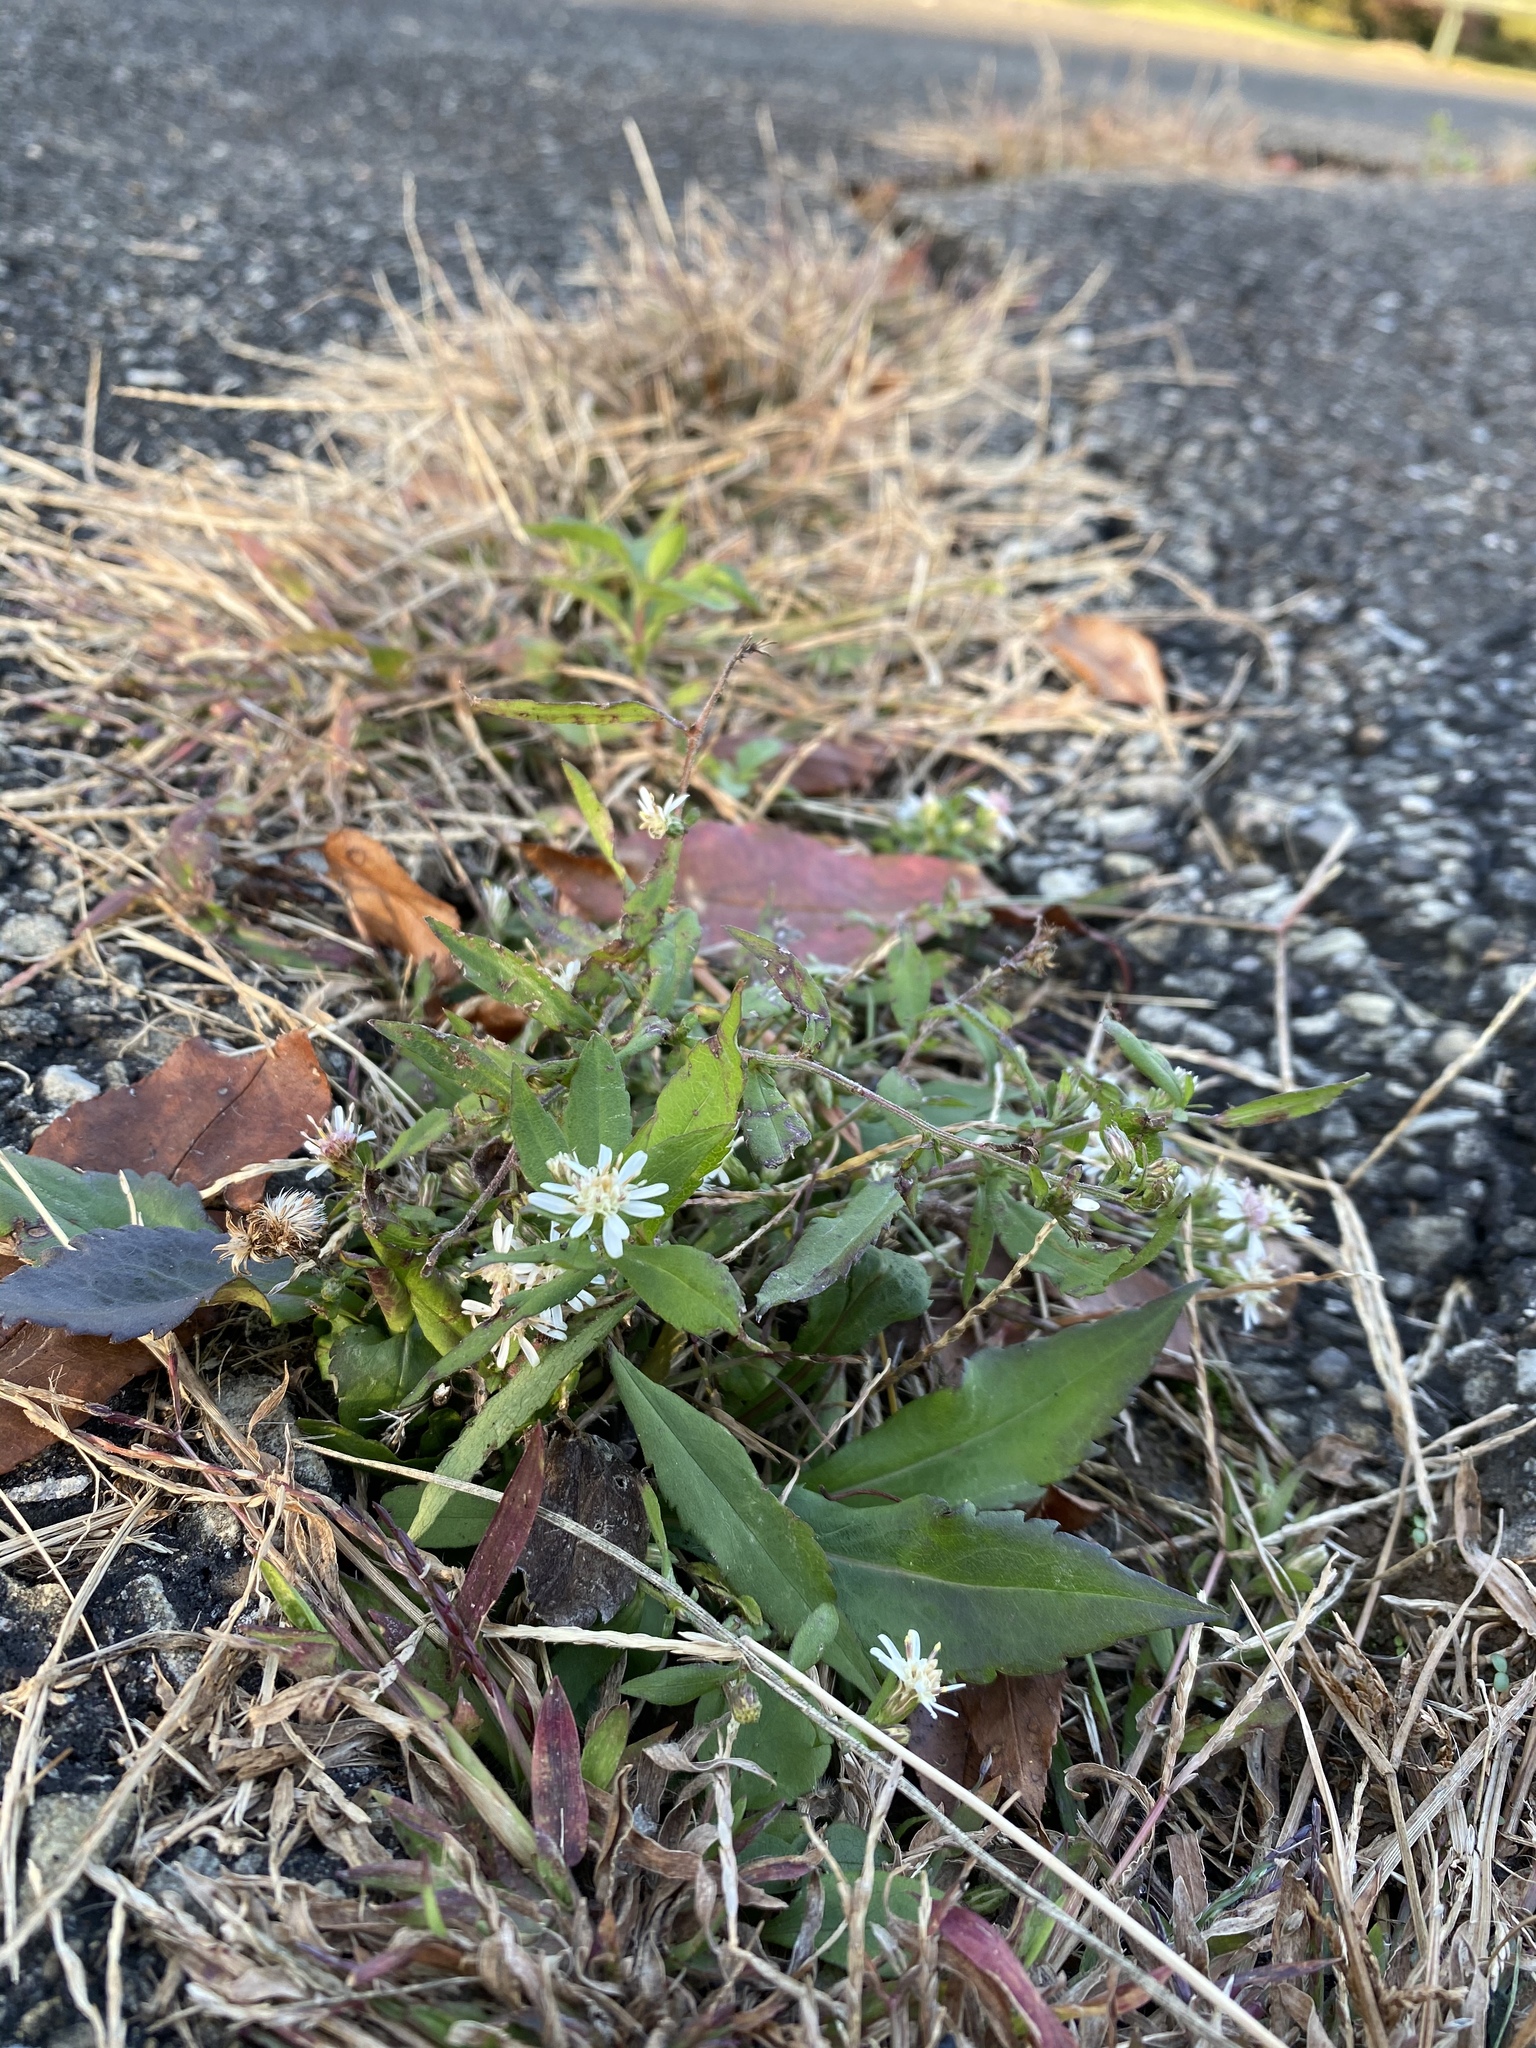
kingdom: Plantae
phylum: Tracheophyta
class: Magnoliopsida
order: Asterales
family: Asteraceae
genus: Symphyotrichum
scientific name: Symphyotrichum lateriflorum
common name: Calico aster
